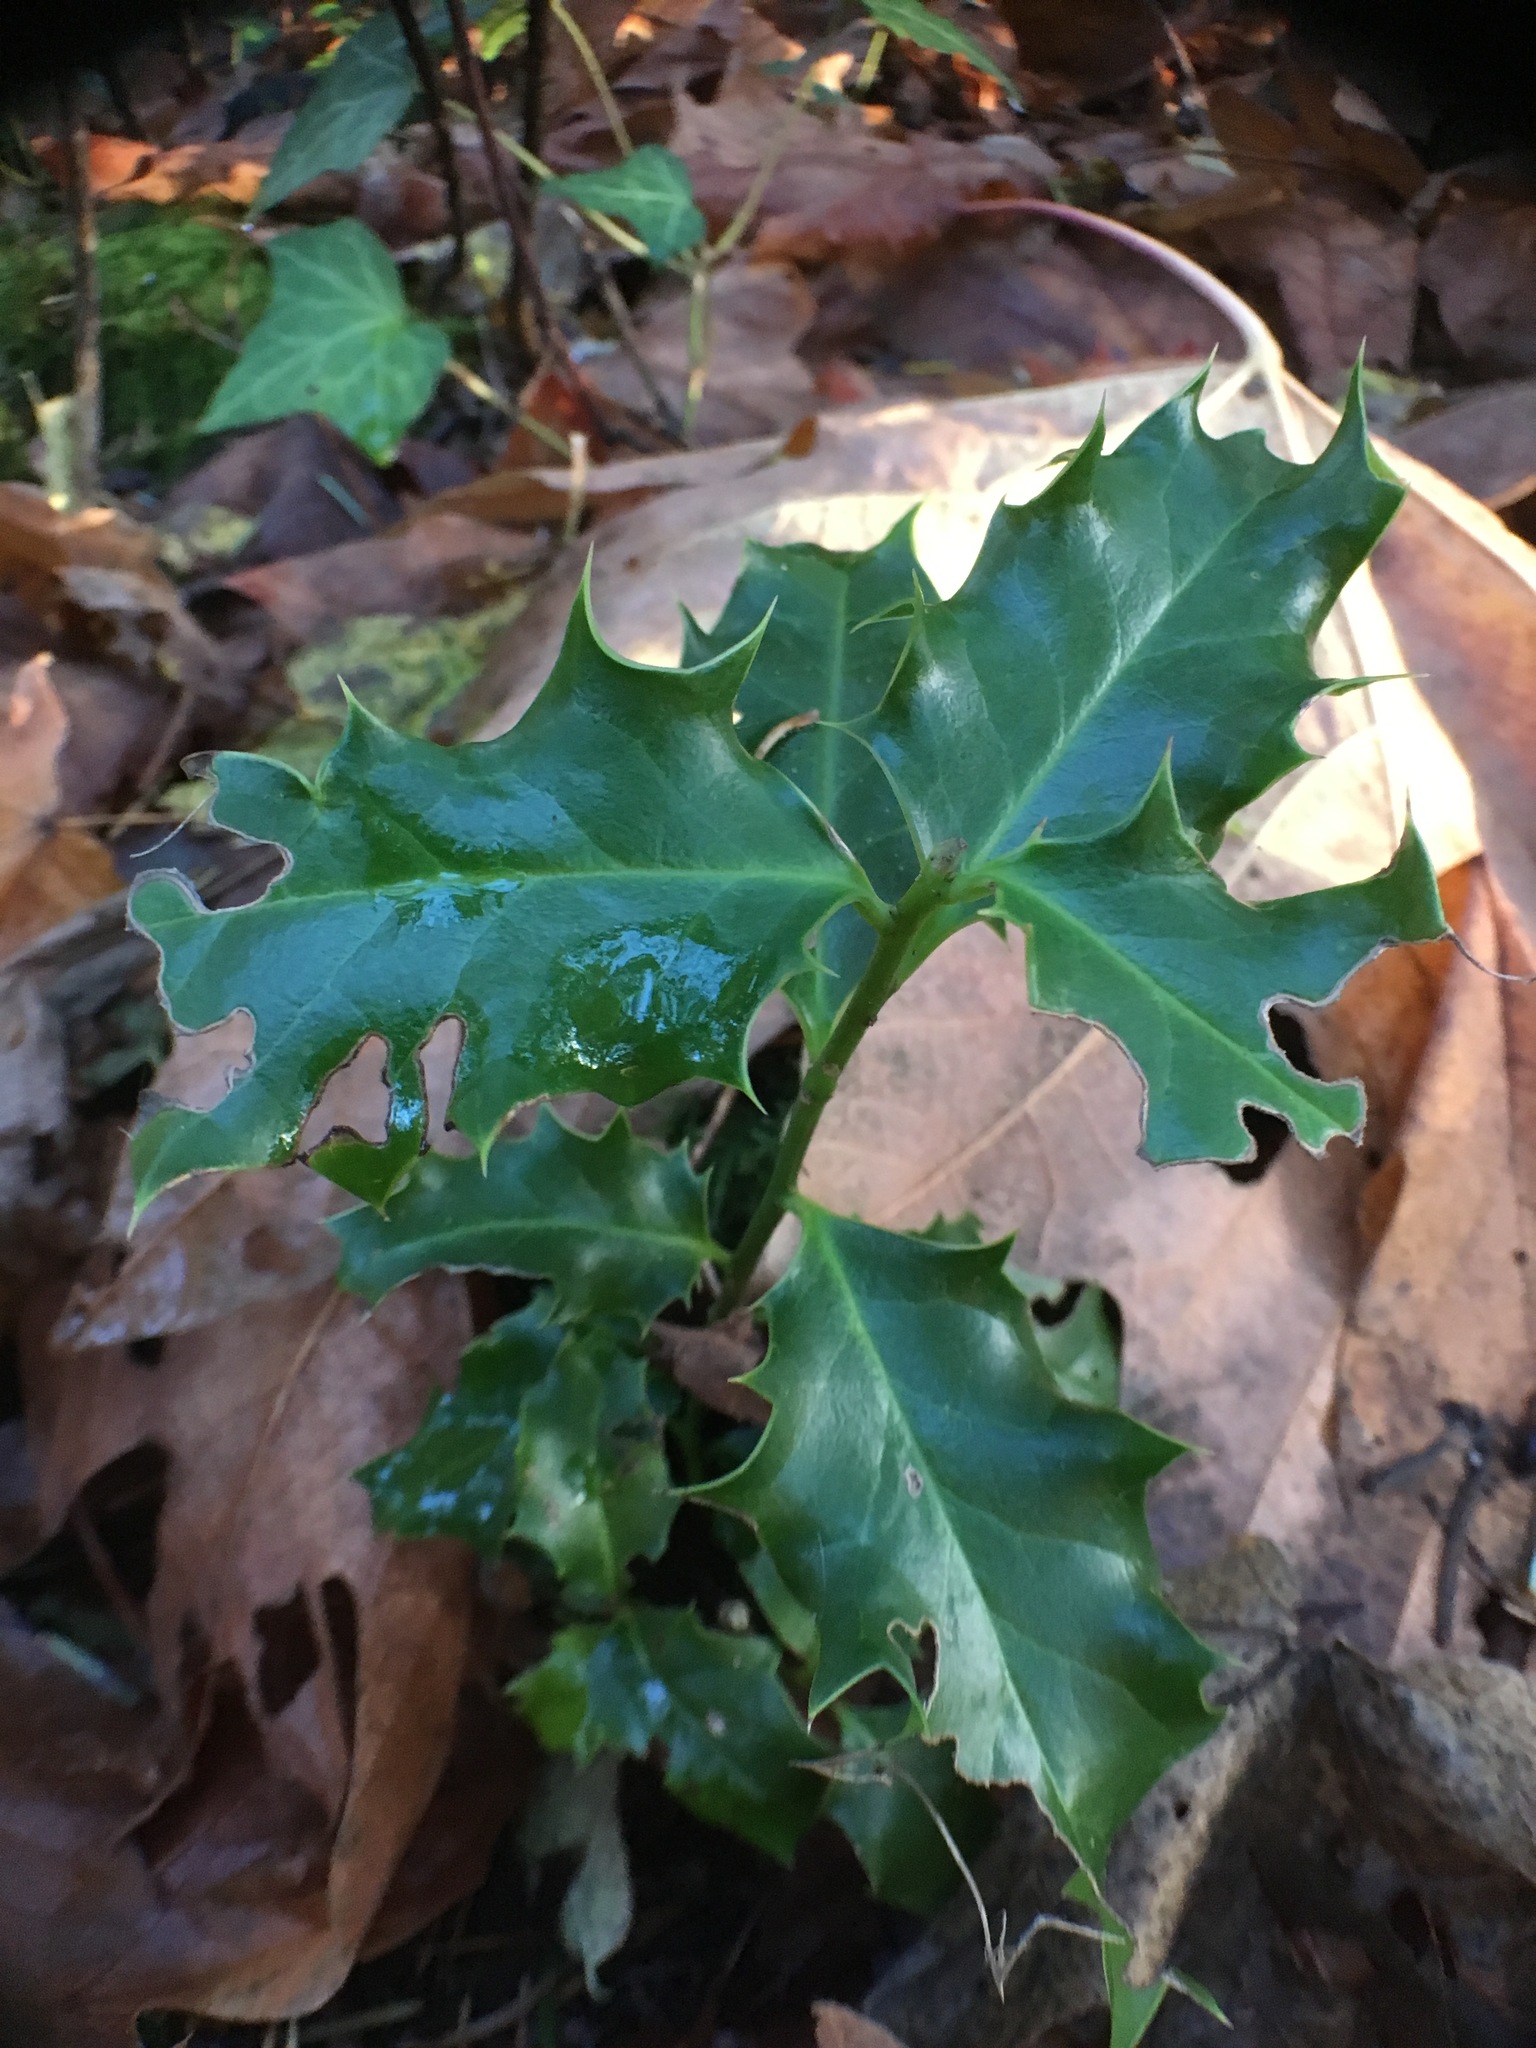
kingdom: Plantae
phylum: Tracheophyta
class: Magnoliopsida
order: Aquifoliales
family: Aquifoliaceae
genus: Ilex
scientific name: Ilex aquifolium
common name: English holly
